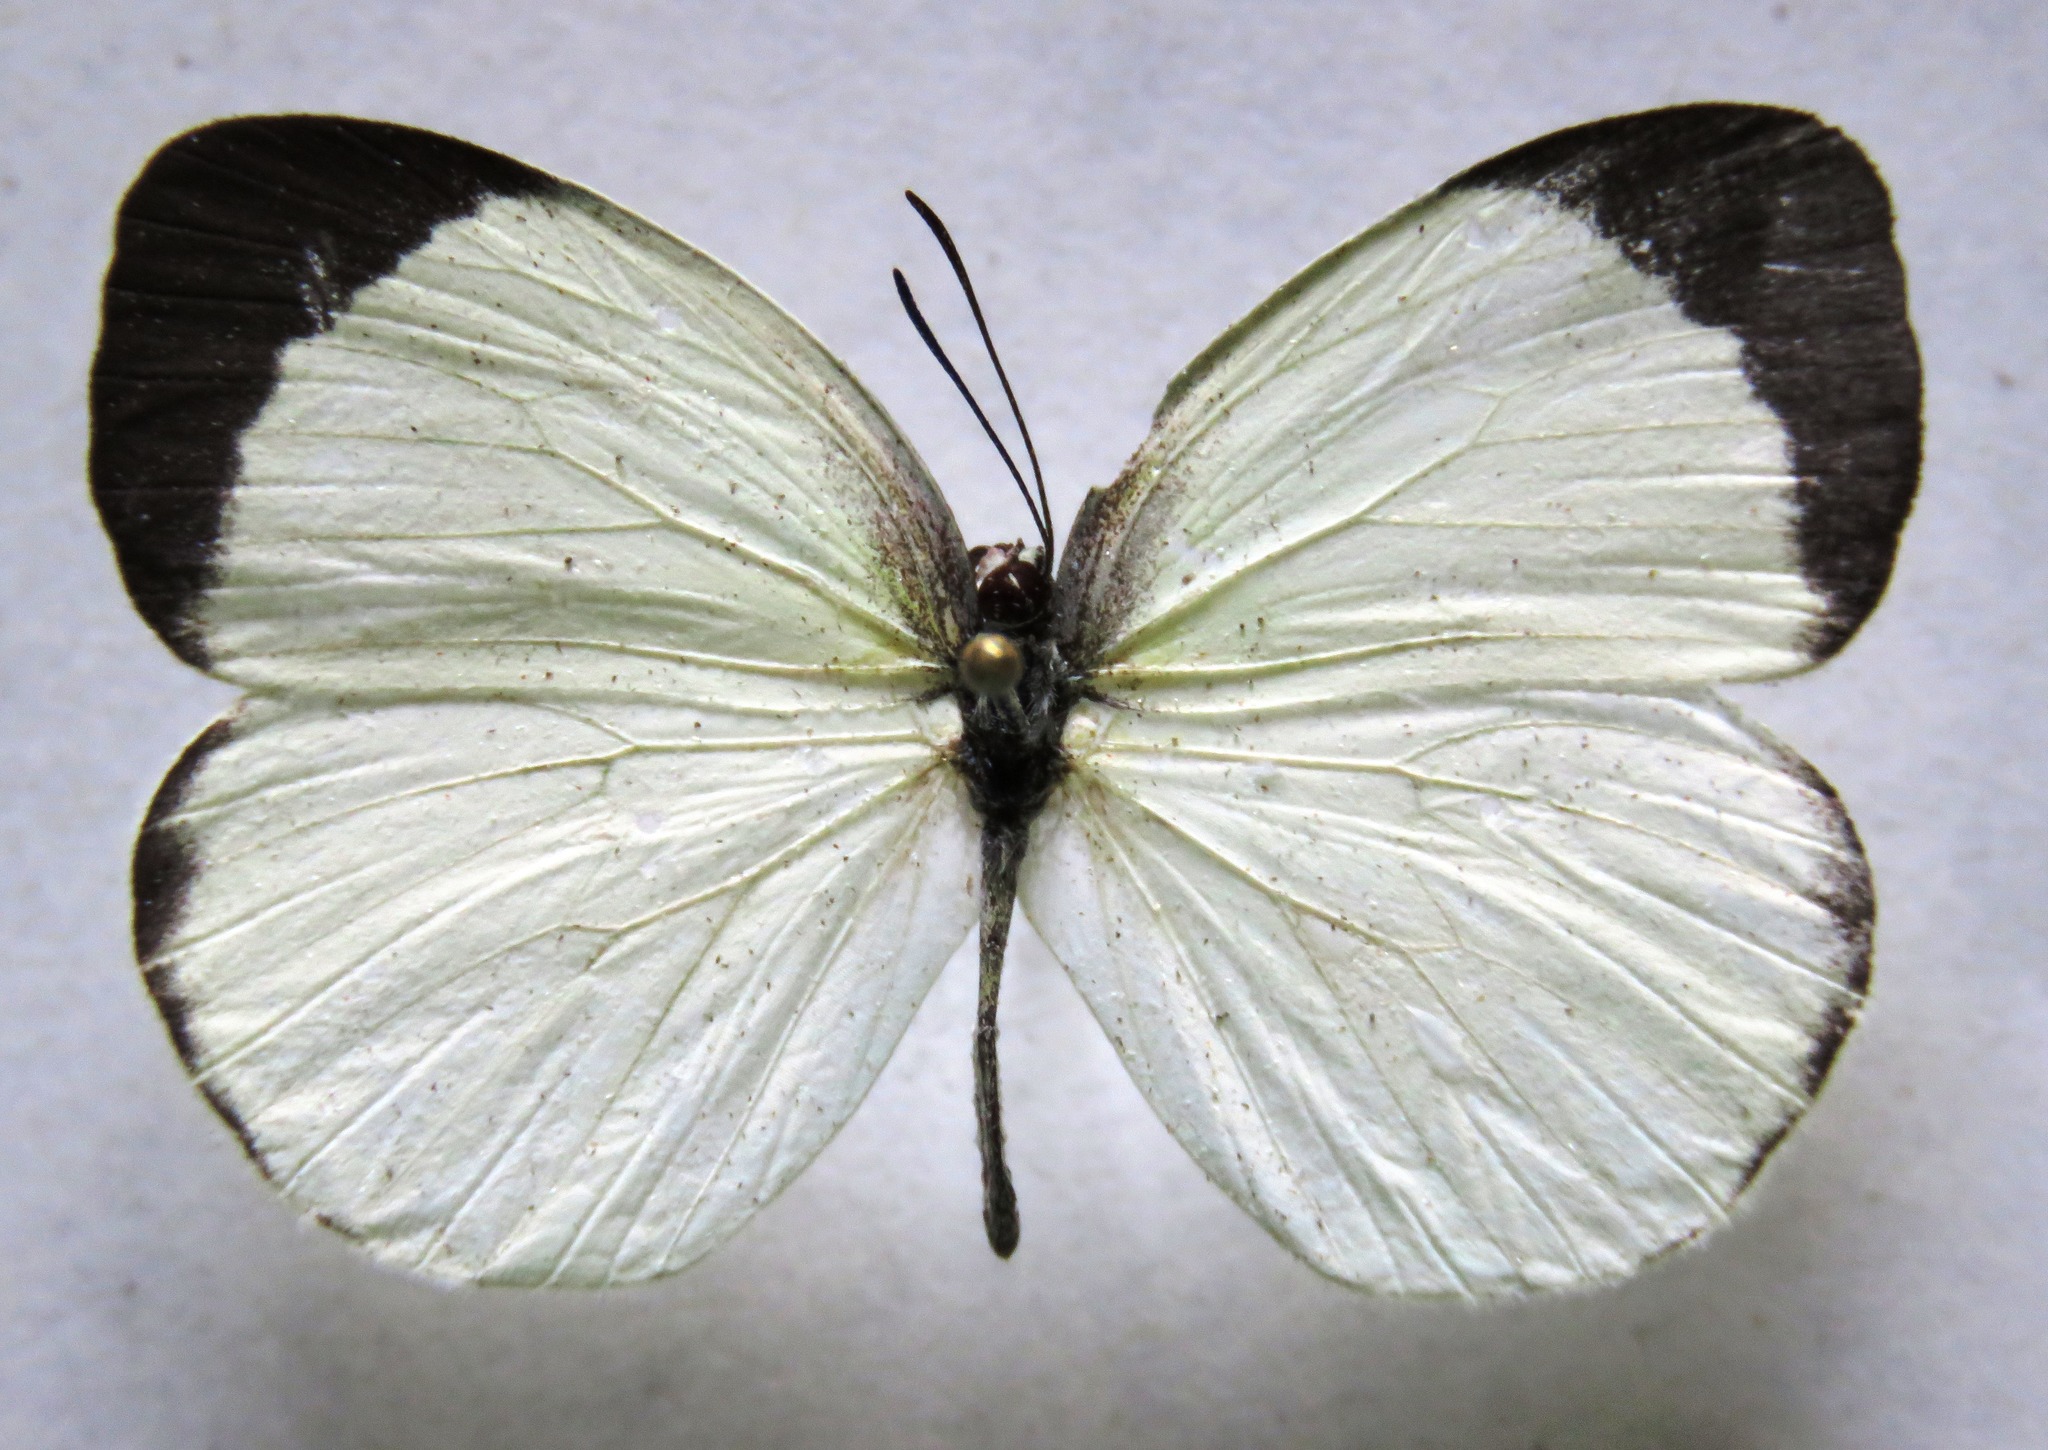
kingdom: Animalia
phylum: Arthropoda
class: Insecta
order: Lepidoptera
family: Pieridae
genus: Abaeis
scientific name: Abaeis albula
